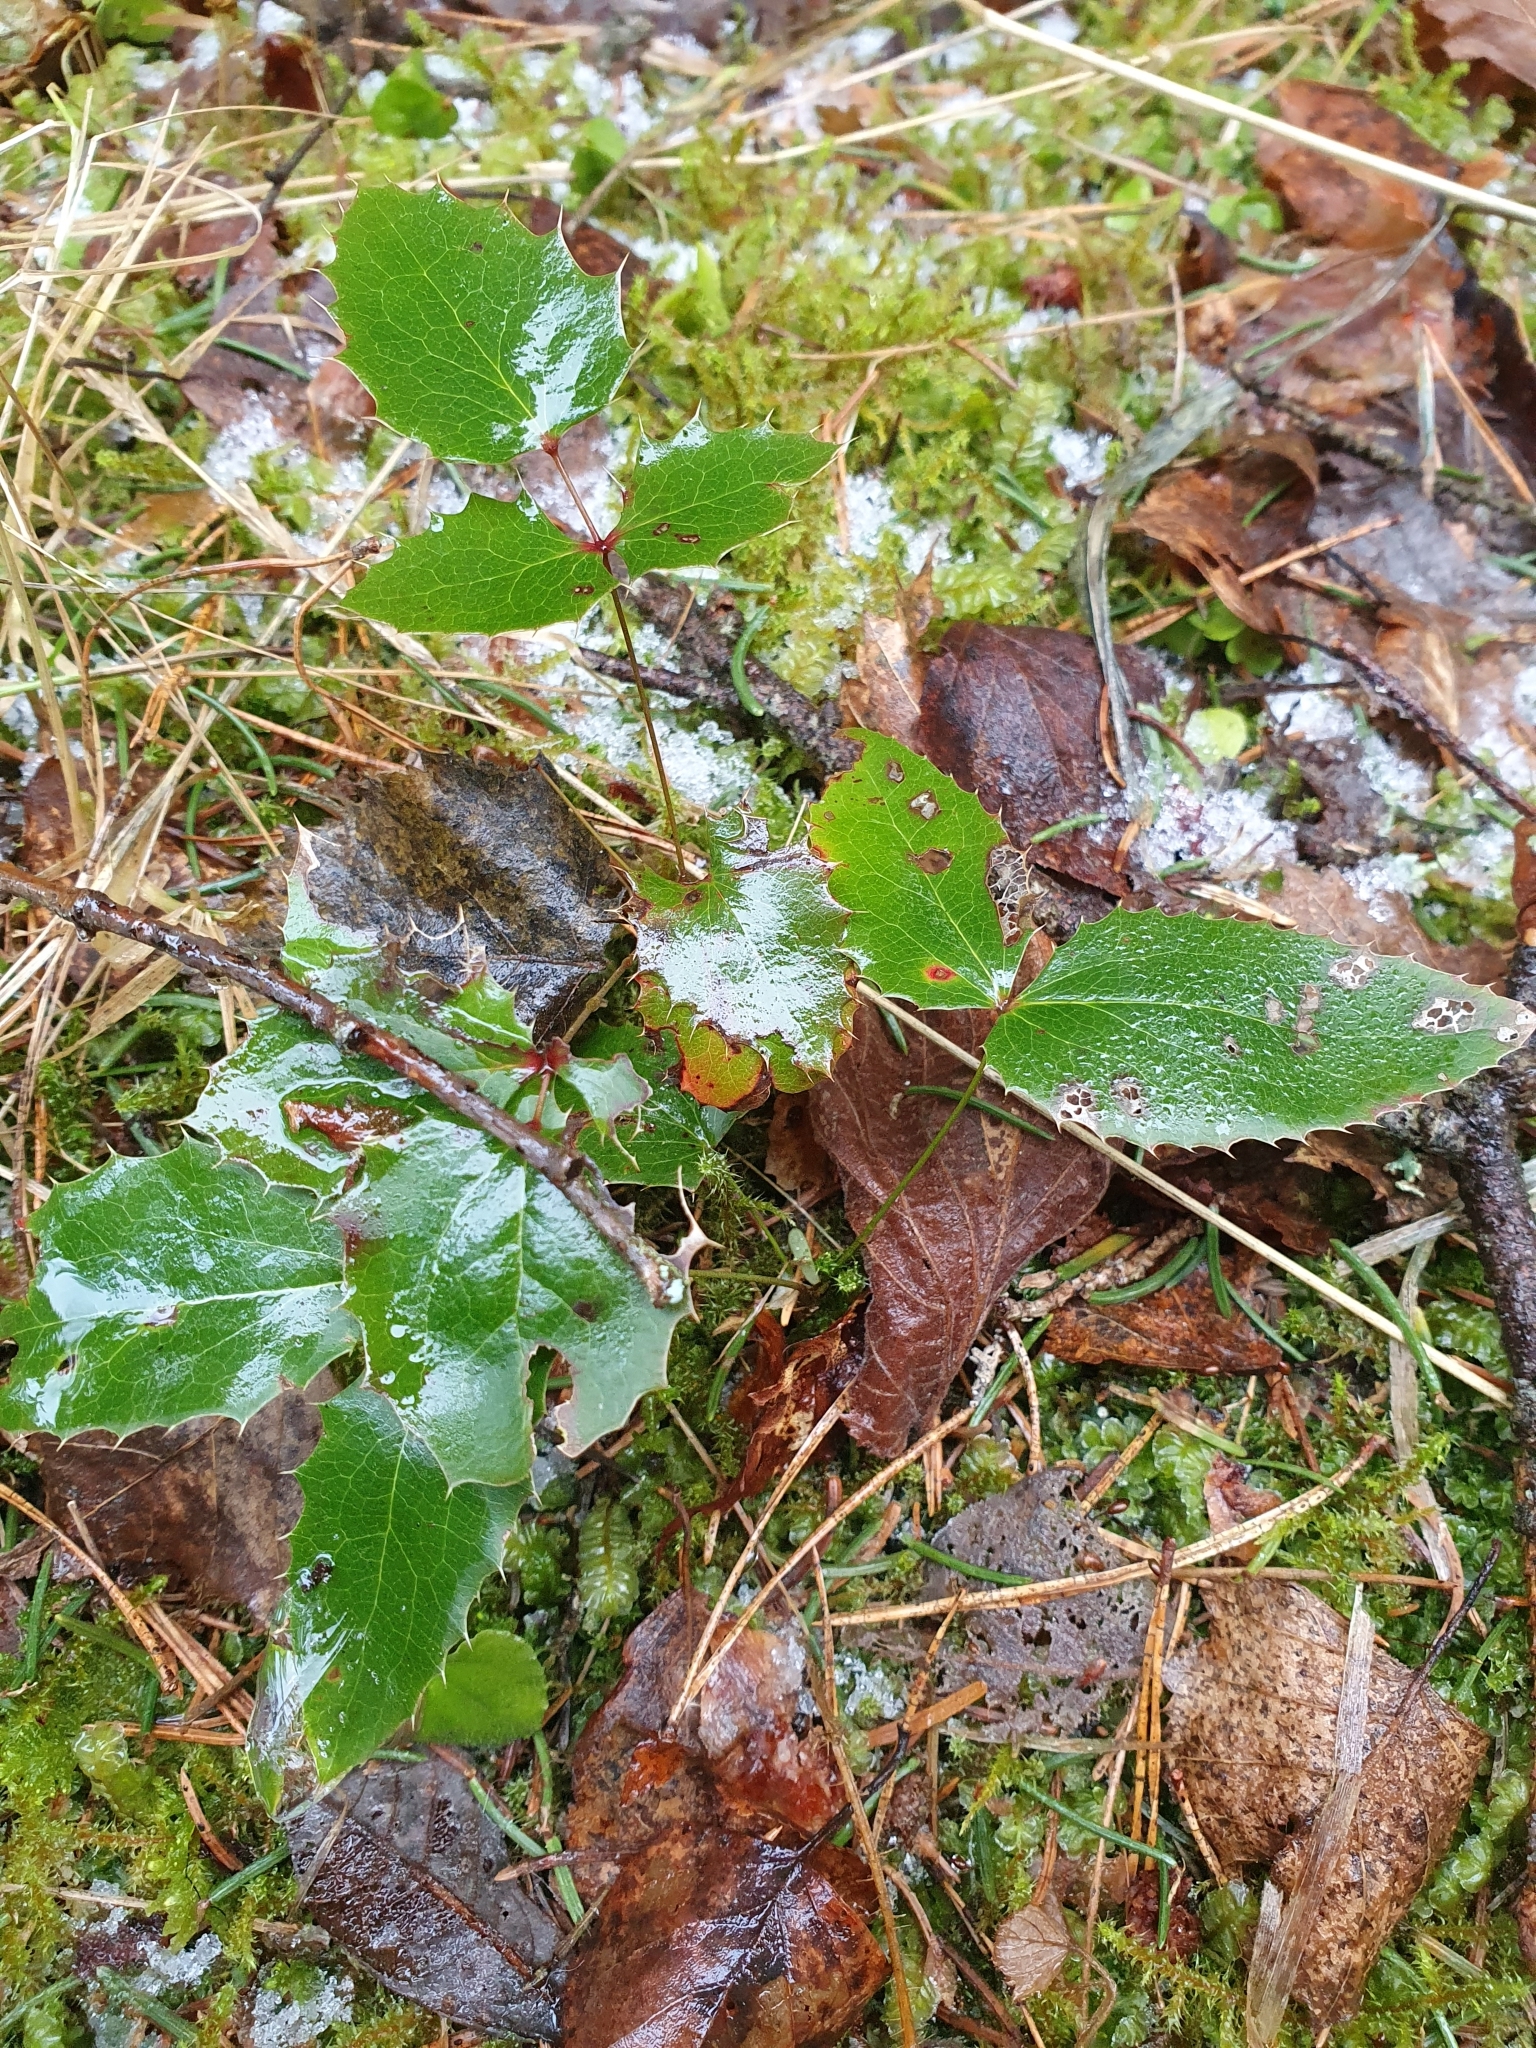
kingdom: Plantae
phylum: Tracheophyta
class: Magnoliopsida
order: Ranunculales
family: Berberidaceae
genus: Mahonia
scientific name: Mahonia aquifolium
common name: Oregon-grape
